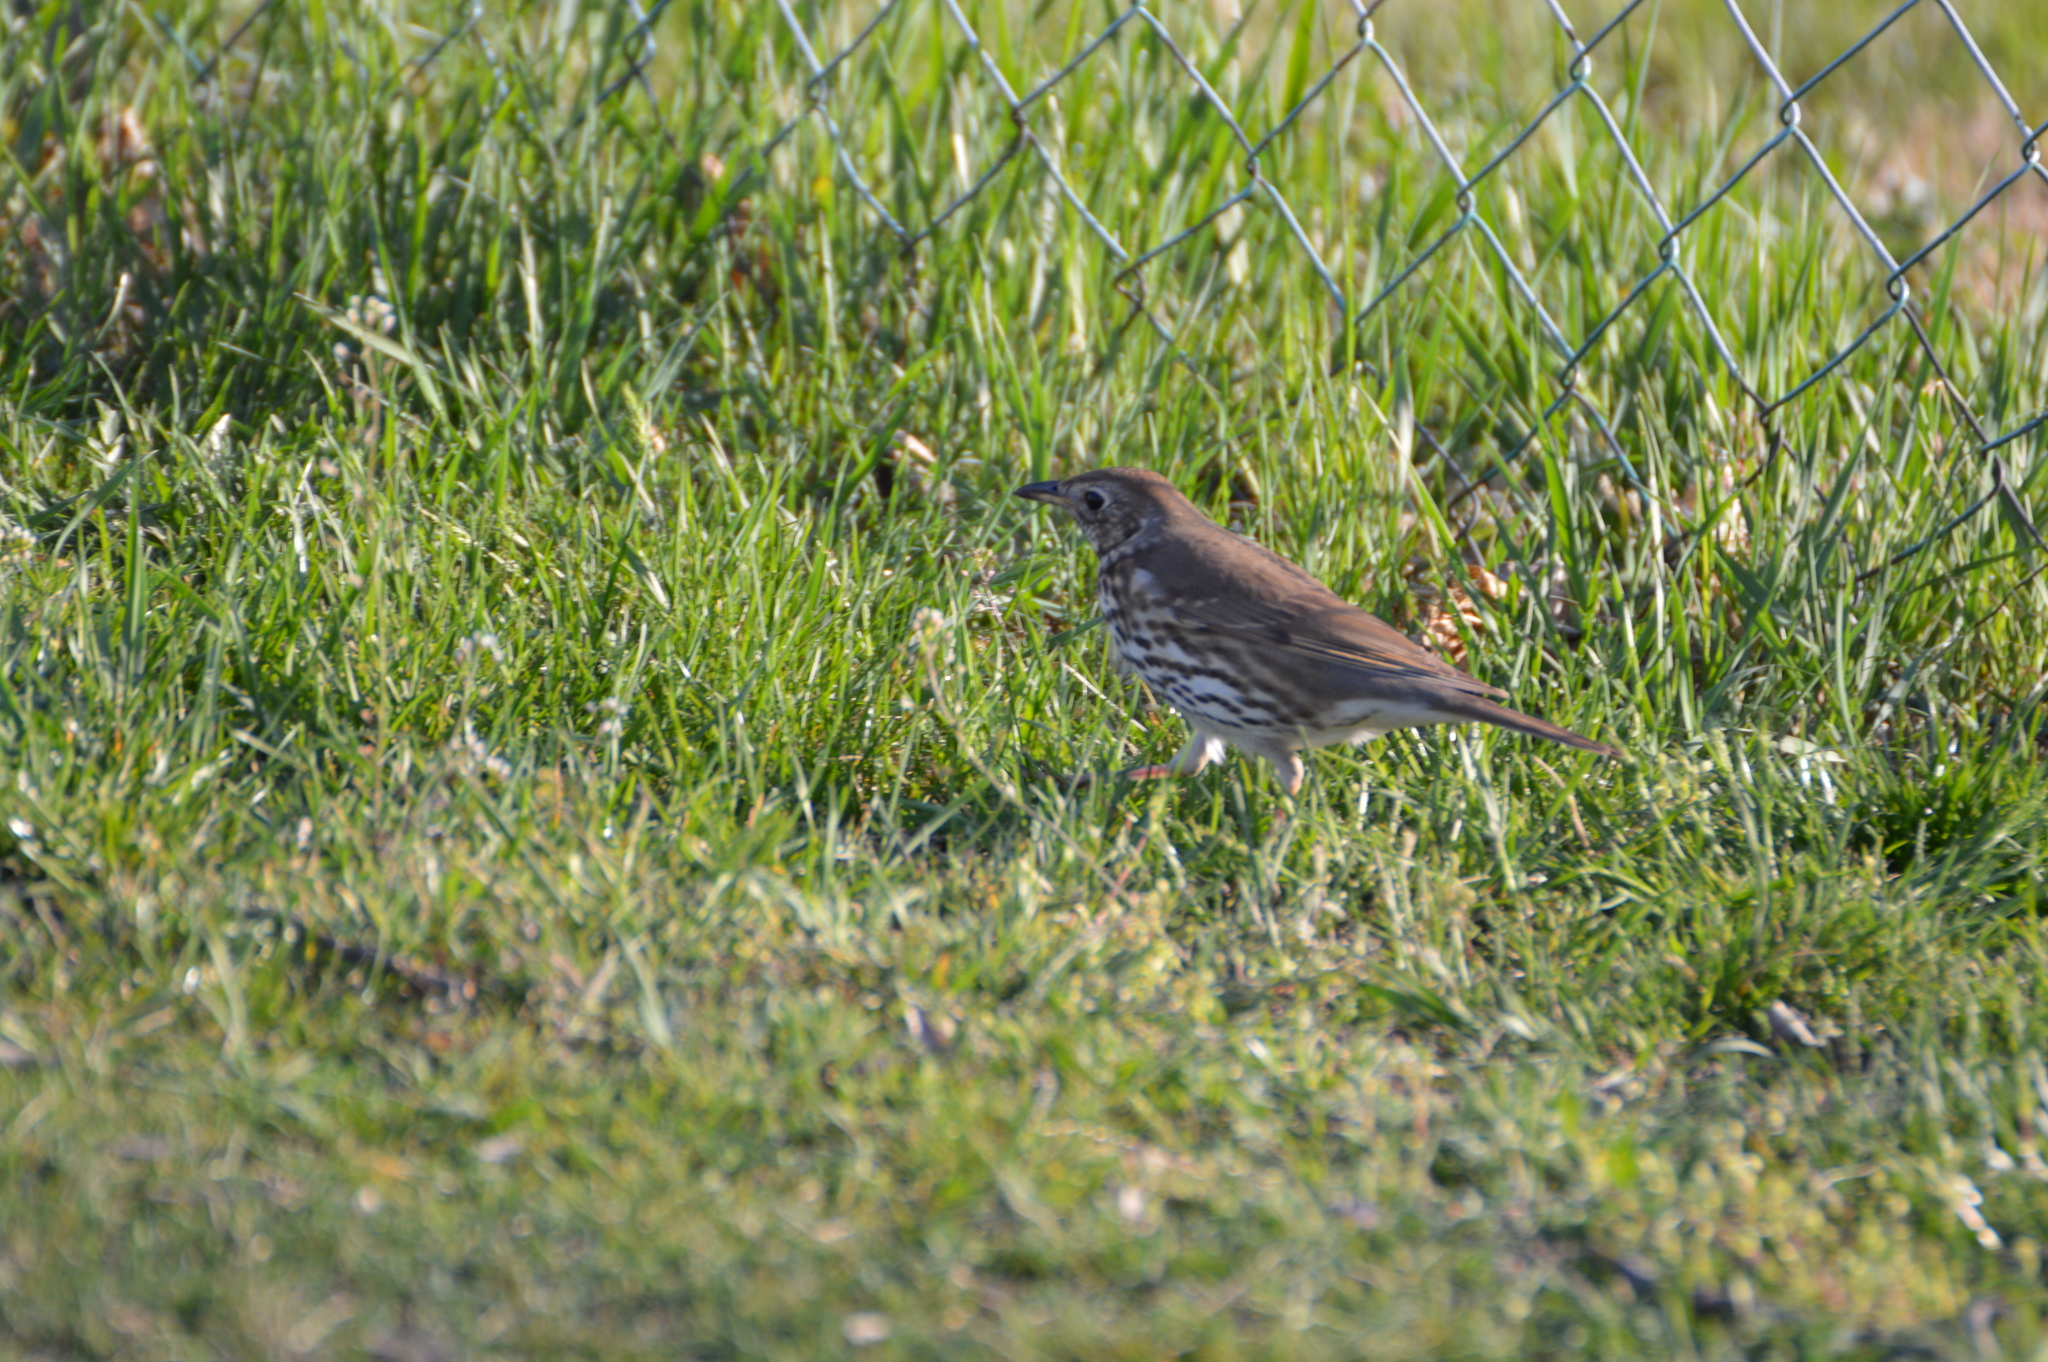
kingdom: Animalia
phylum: Chordata
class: Aves
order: Passeriformes
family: Turdidae
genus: Turdus
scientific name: Turdus philomelos
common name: Song thrush
